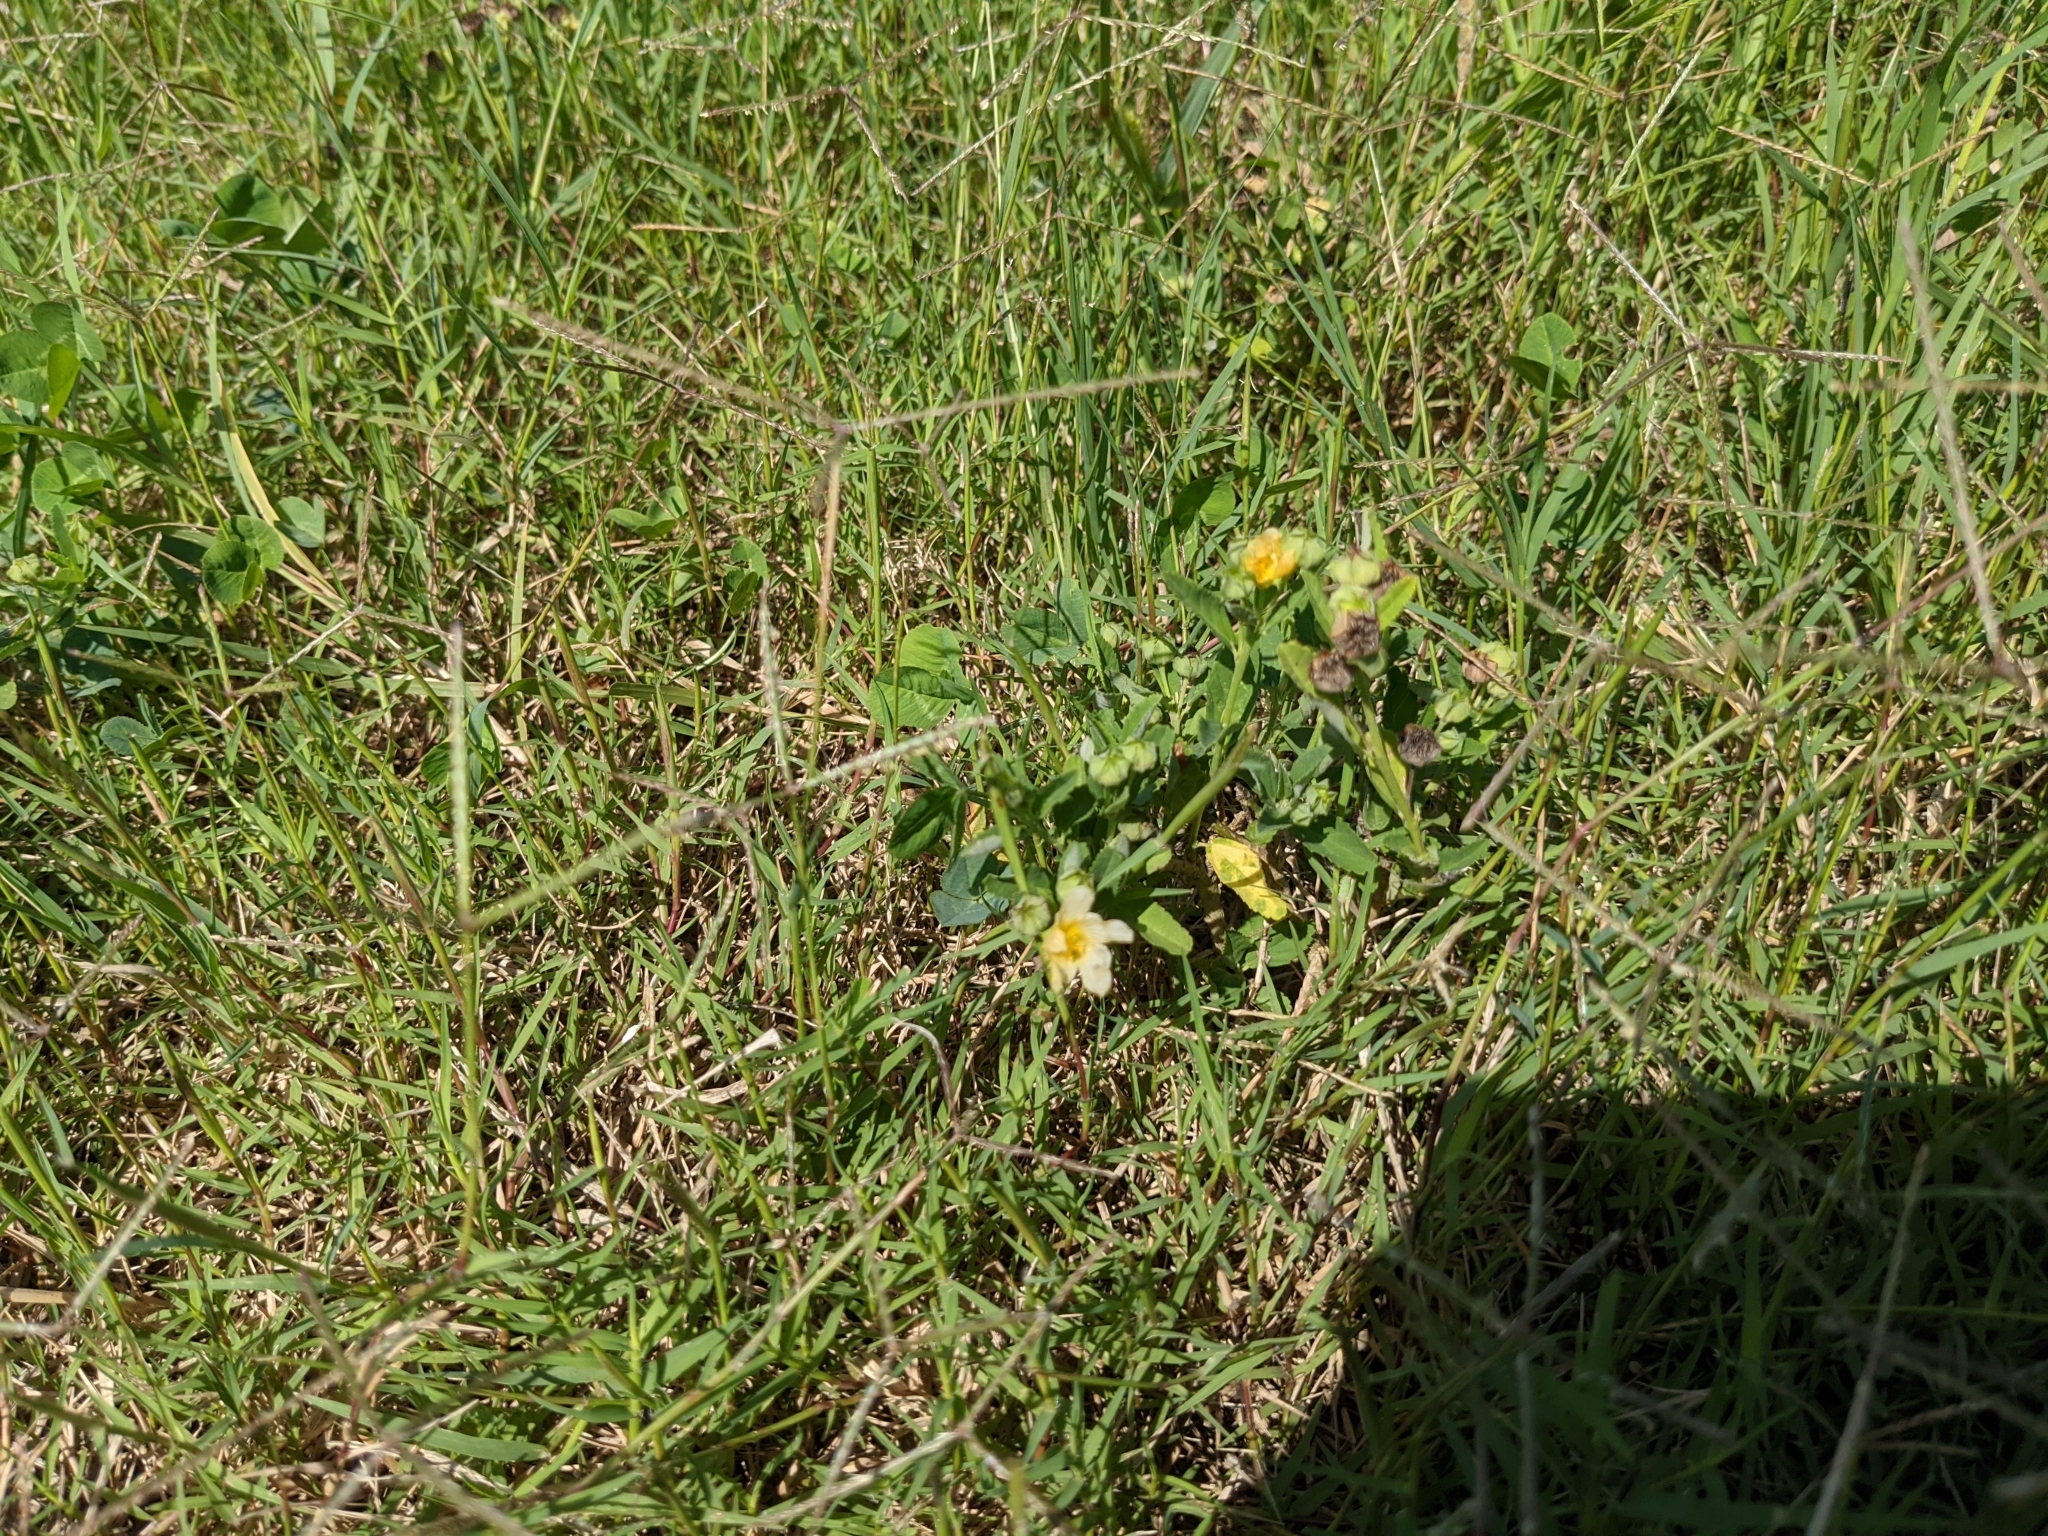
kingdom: Plantae
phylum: Tracheophyta
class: Magnoliopsida
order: Malvales
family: Malvaceae
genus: Sida
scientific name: Sida rhombifolia
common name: Queensland-hemp
